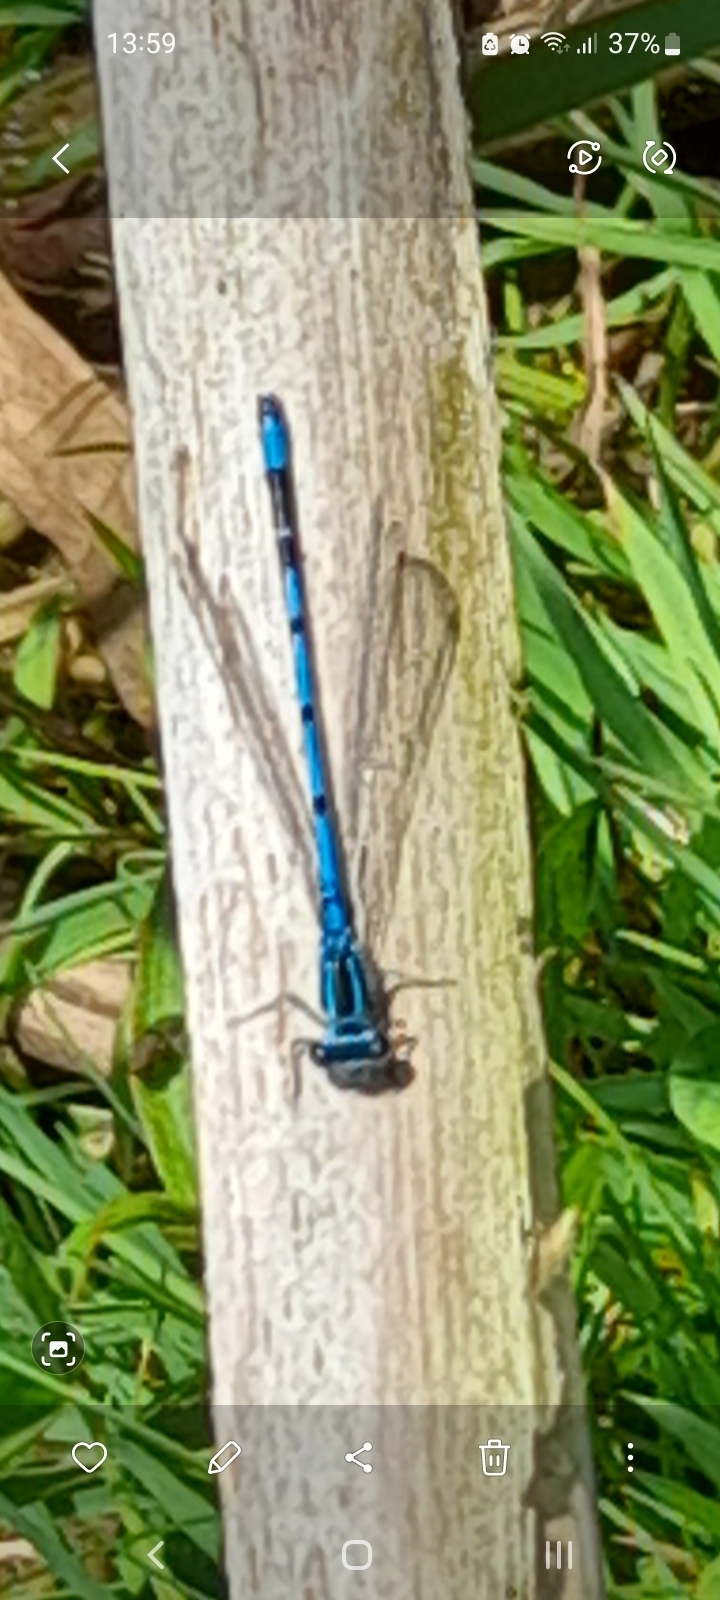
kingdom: Animalia
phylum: Arthropoda
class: Insecta
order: Odonata
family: Coenagrionidae
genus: Coenagrion
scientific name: Coenagrion puella
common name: Azure damselfly
